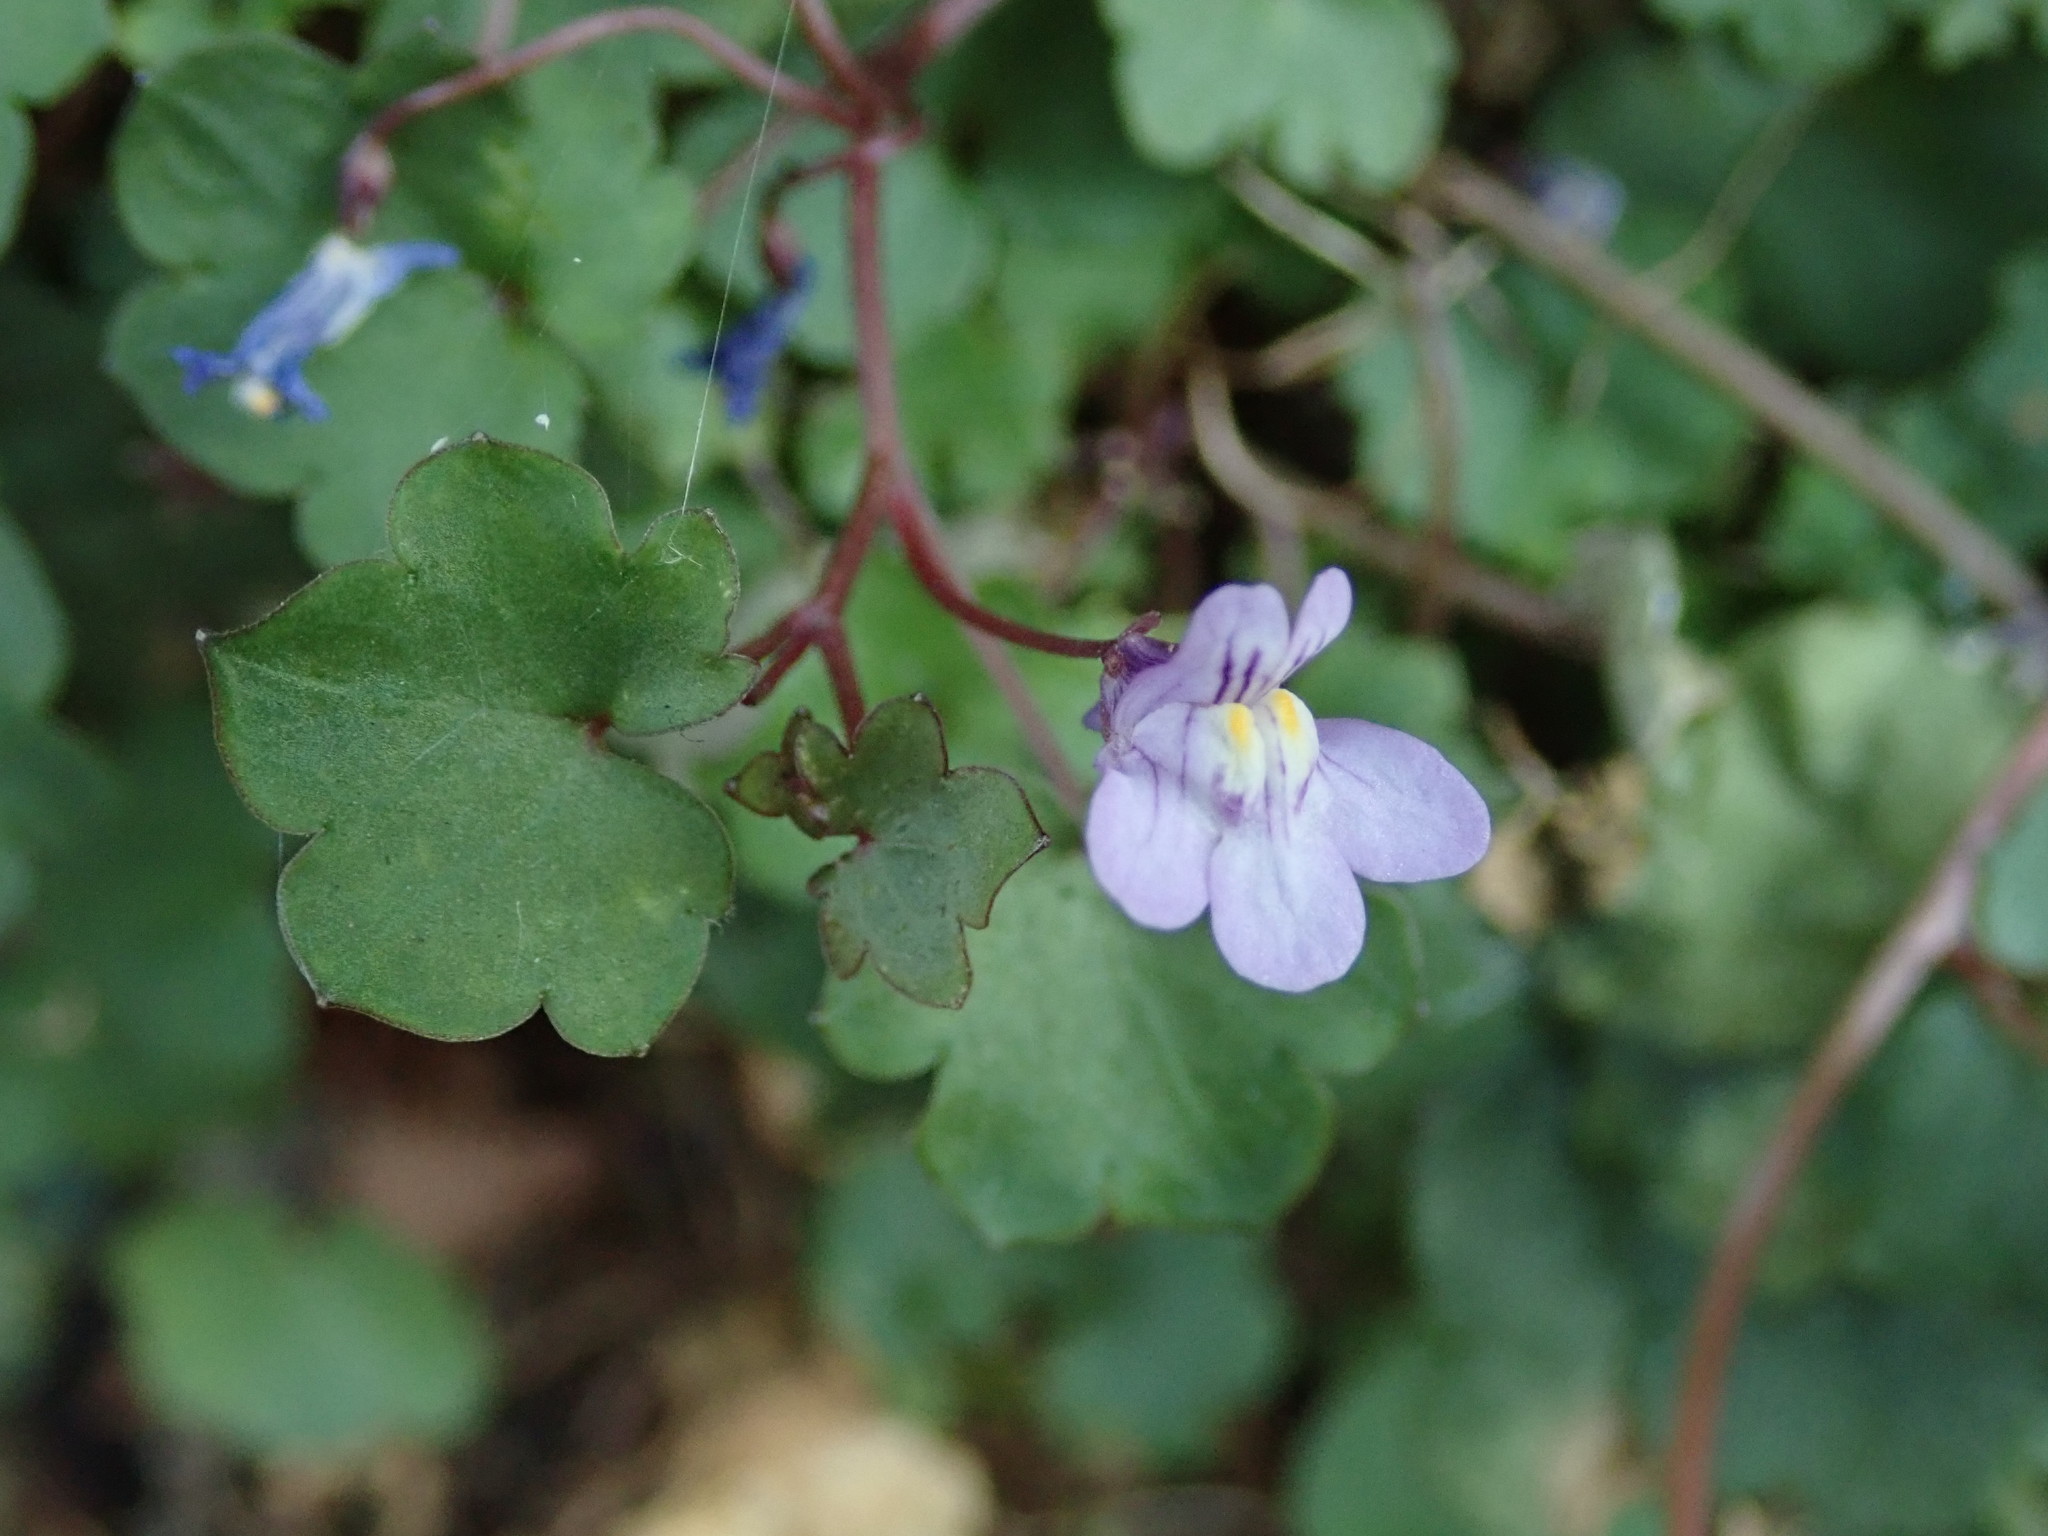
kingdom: Plantae
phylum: Tracheophyta
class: Magnoliopsida
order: Lamiales
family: Plantaginaceae
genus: Cymbalaria
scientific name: Cymbalaria muralis
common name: Ivy-leaved toadflax
